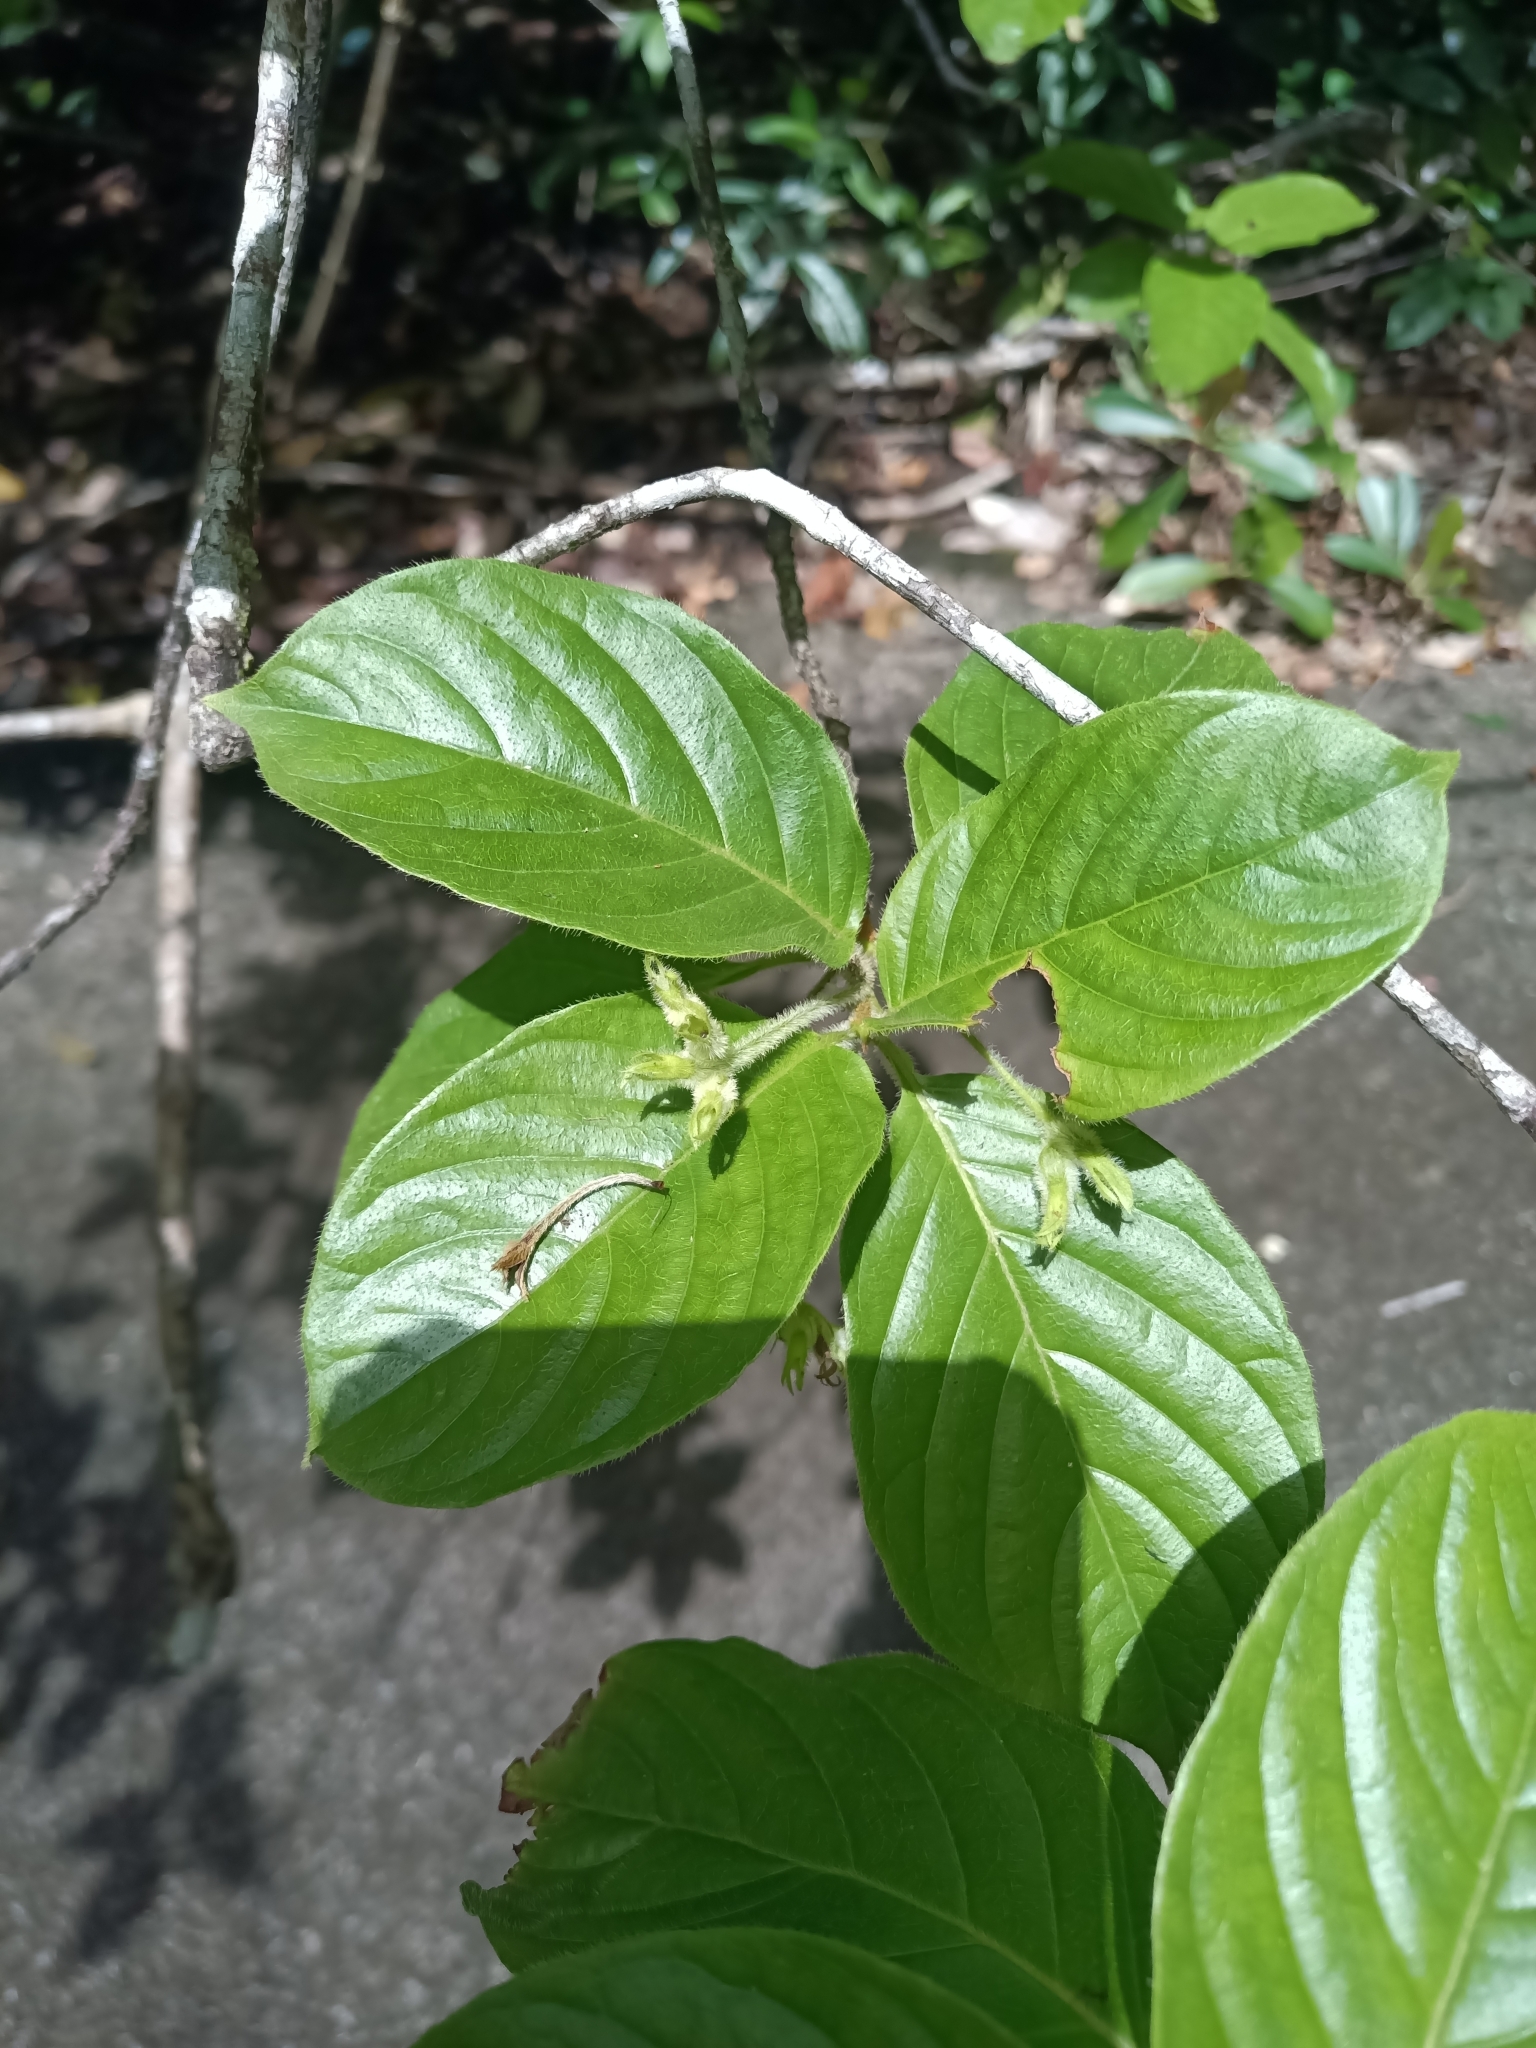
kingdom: Plantae
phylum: Tracheophyta
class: Magnoliopsida
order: Gentianales
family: Rubiaceae
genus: Chomelia
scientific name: Chomelia triflora
